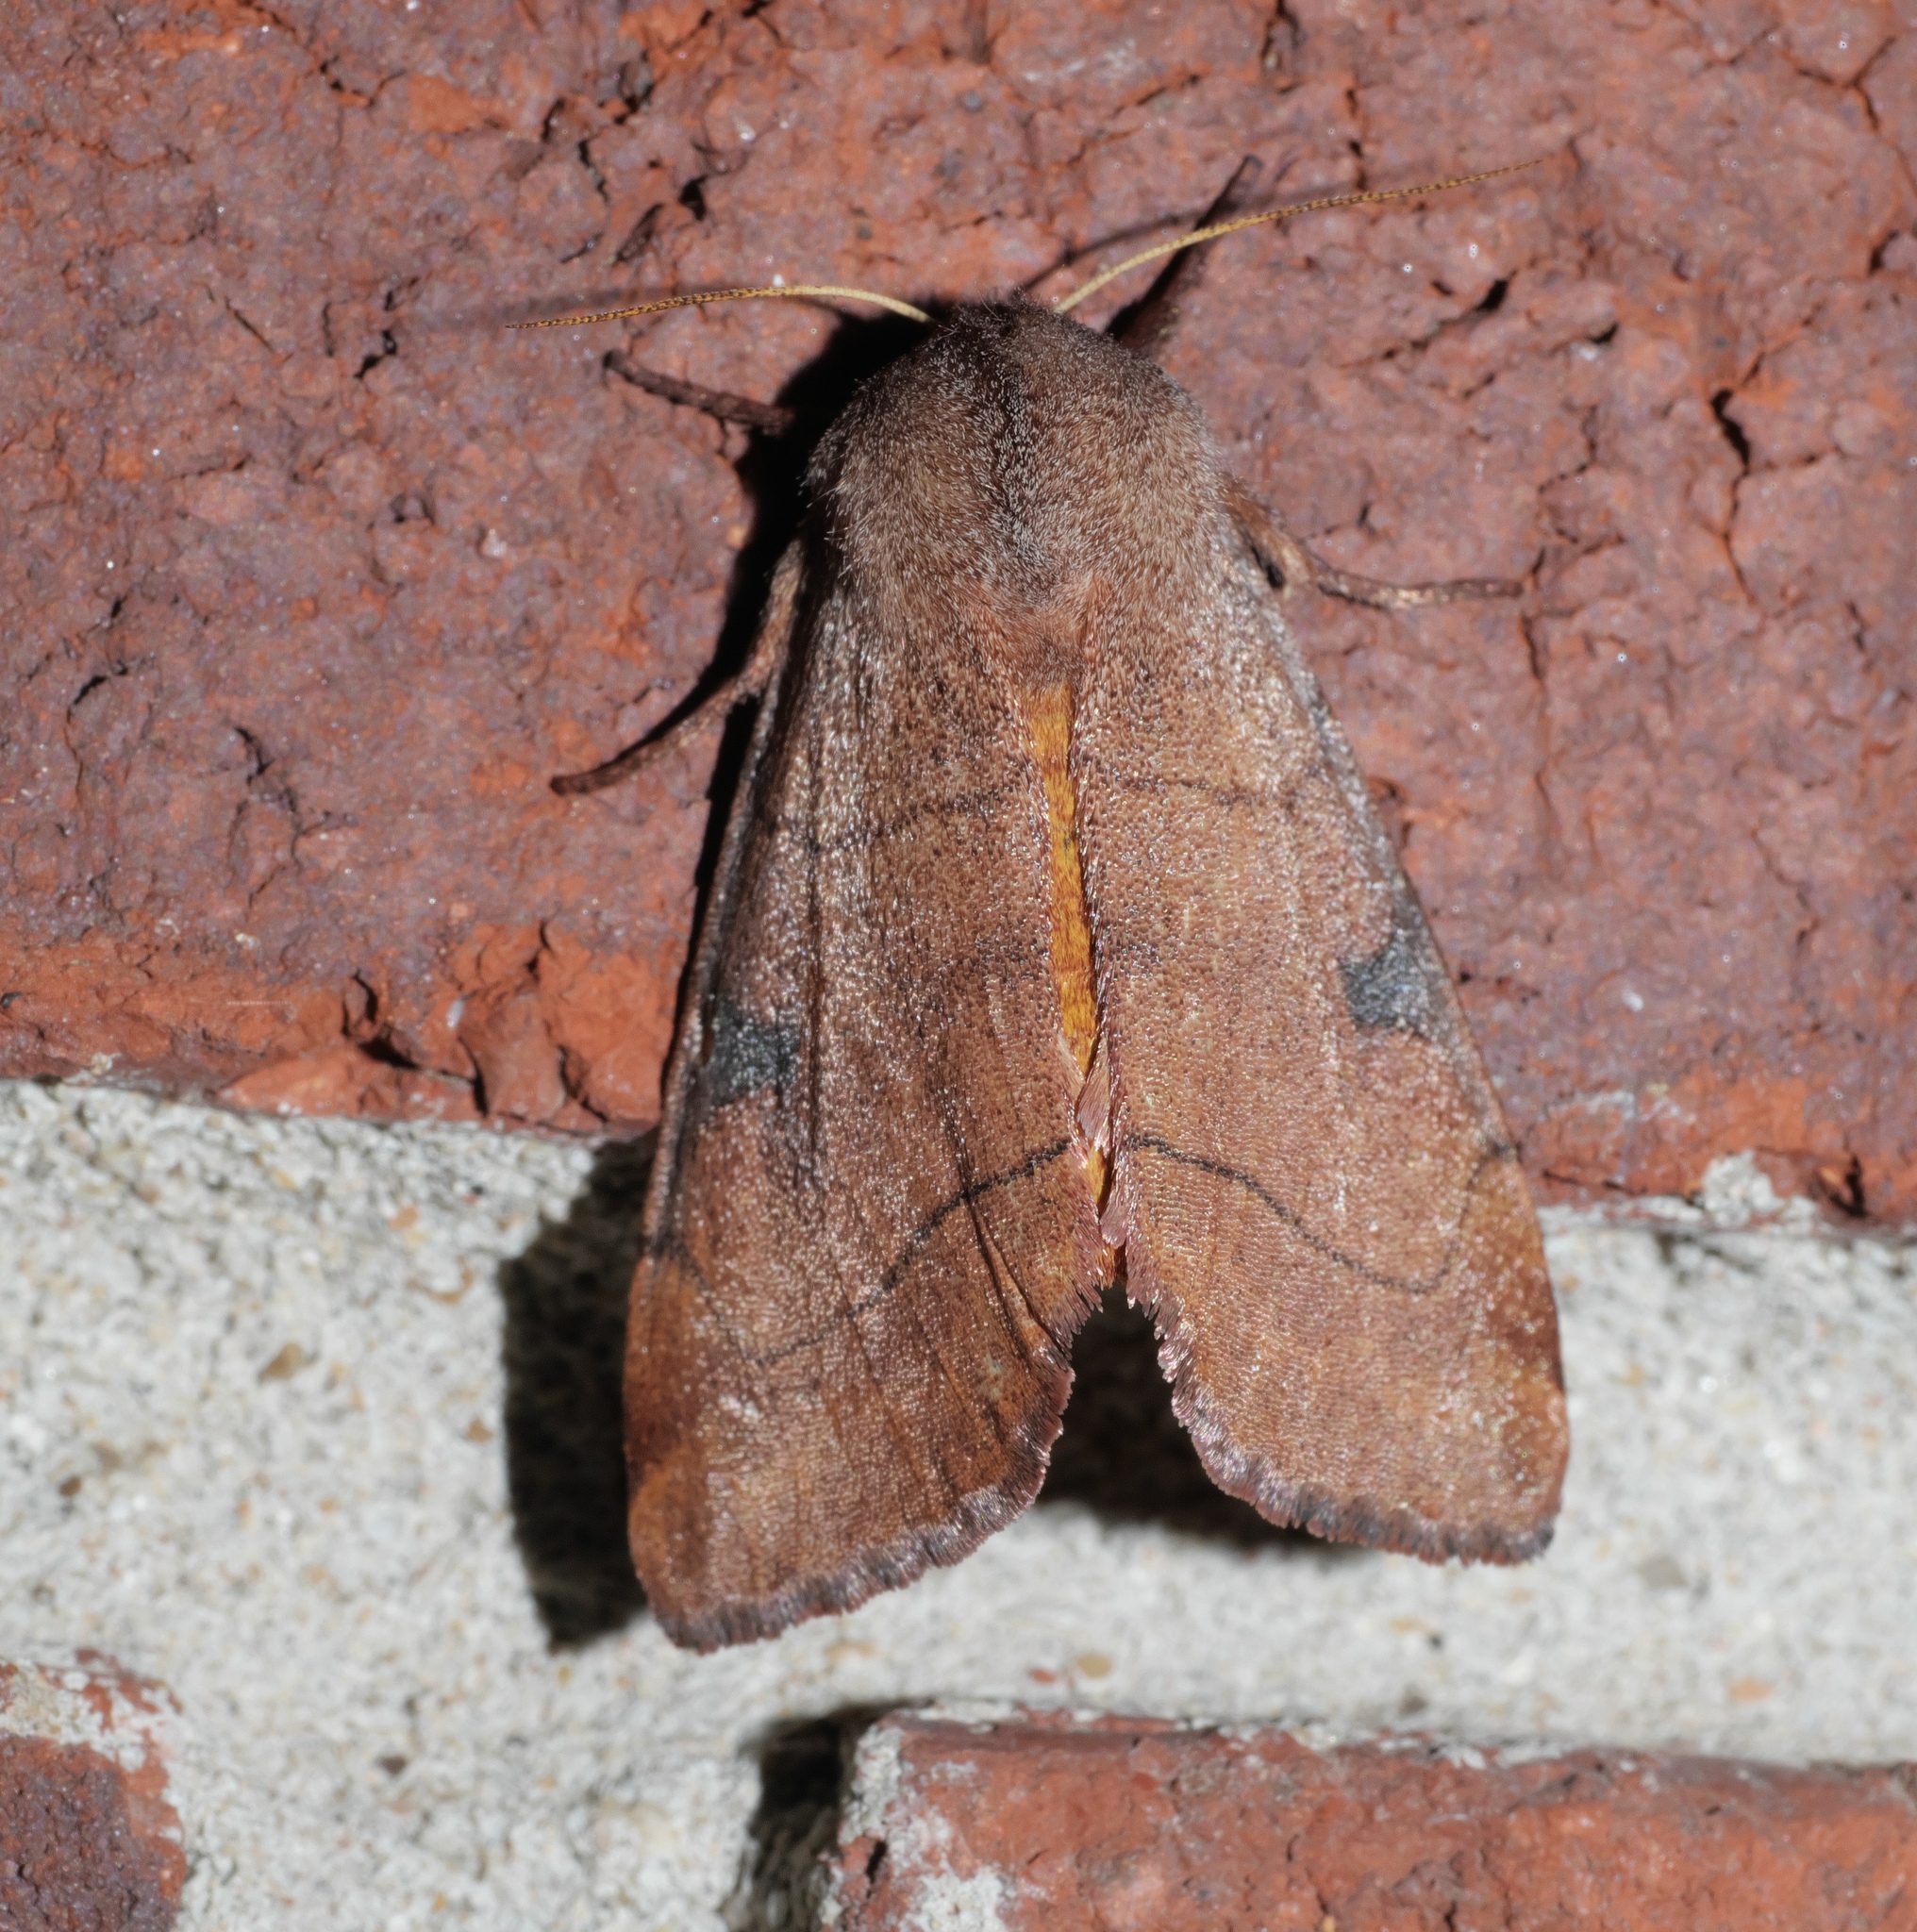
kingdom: Animalia
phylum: Arthropoda
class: Insecta
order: Lepidoptera
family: Noctuidae
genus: Choephora
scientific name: Choephora fungorum
